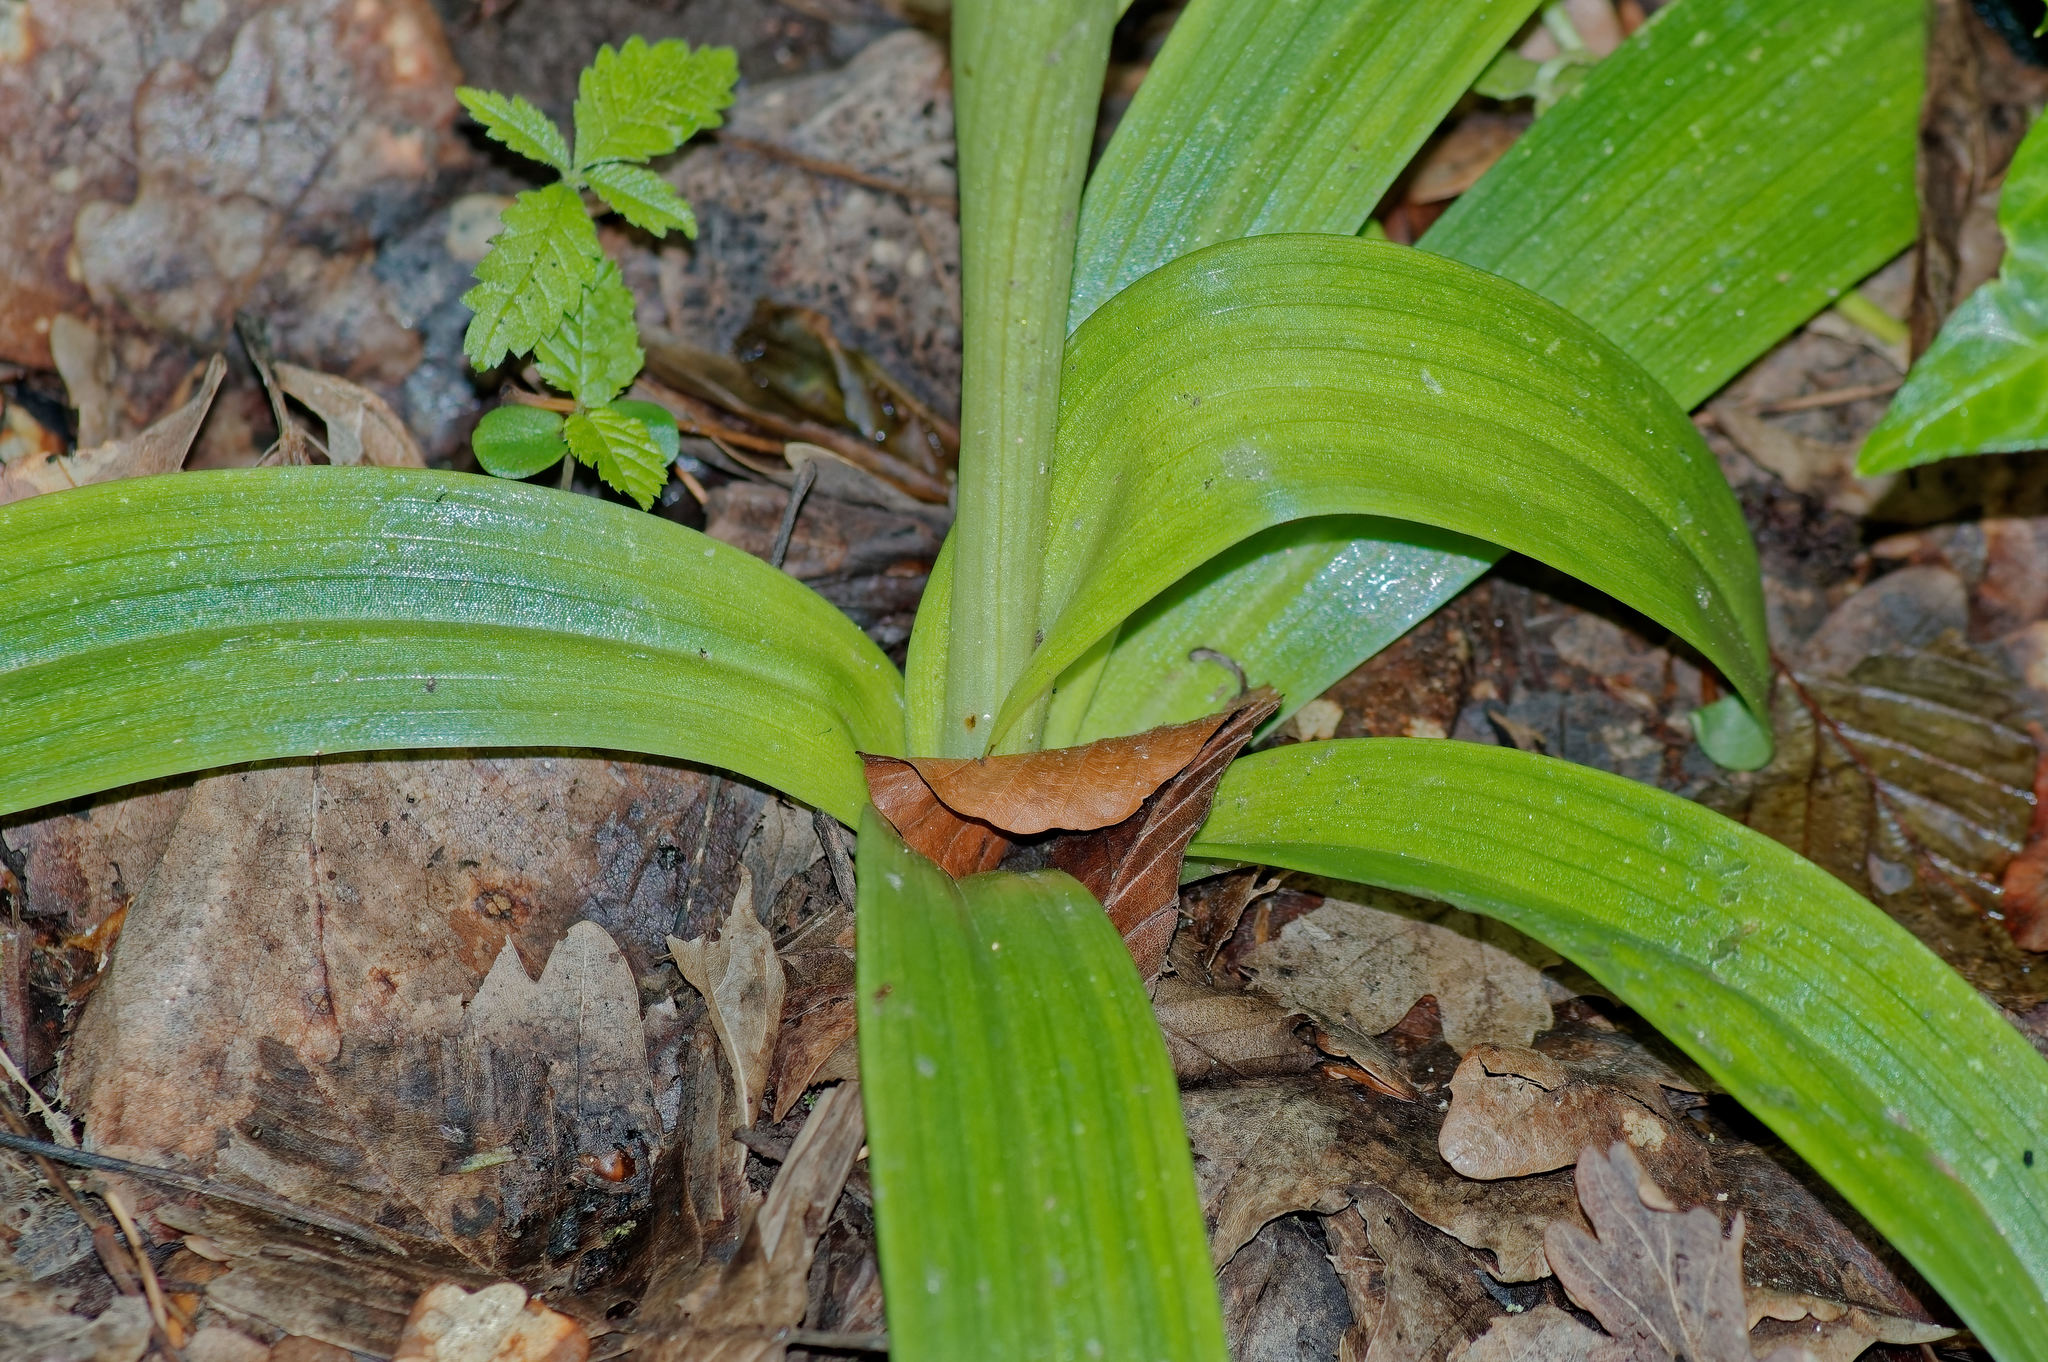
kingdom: Plantae
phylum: Tracheophyta
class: Liliopsida
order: Asparagales
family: Orchidaceae
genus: Orchis
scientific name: Orchis mascula
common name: Early-purple orchid
